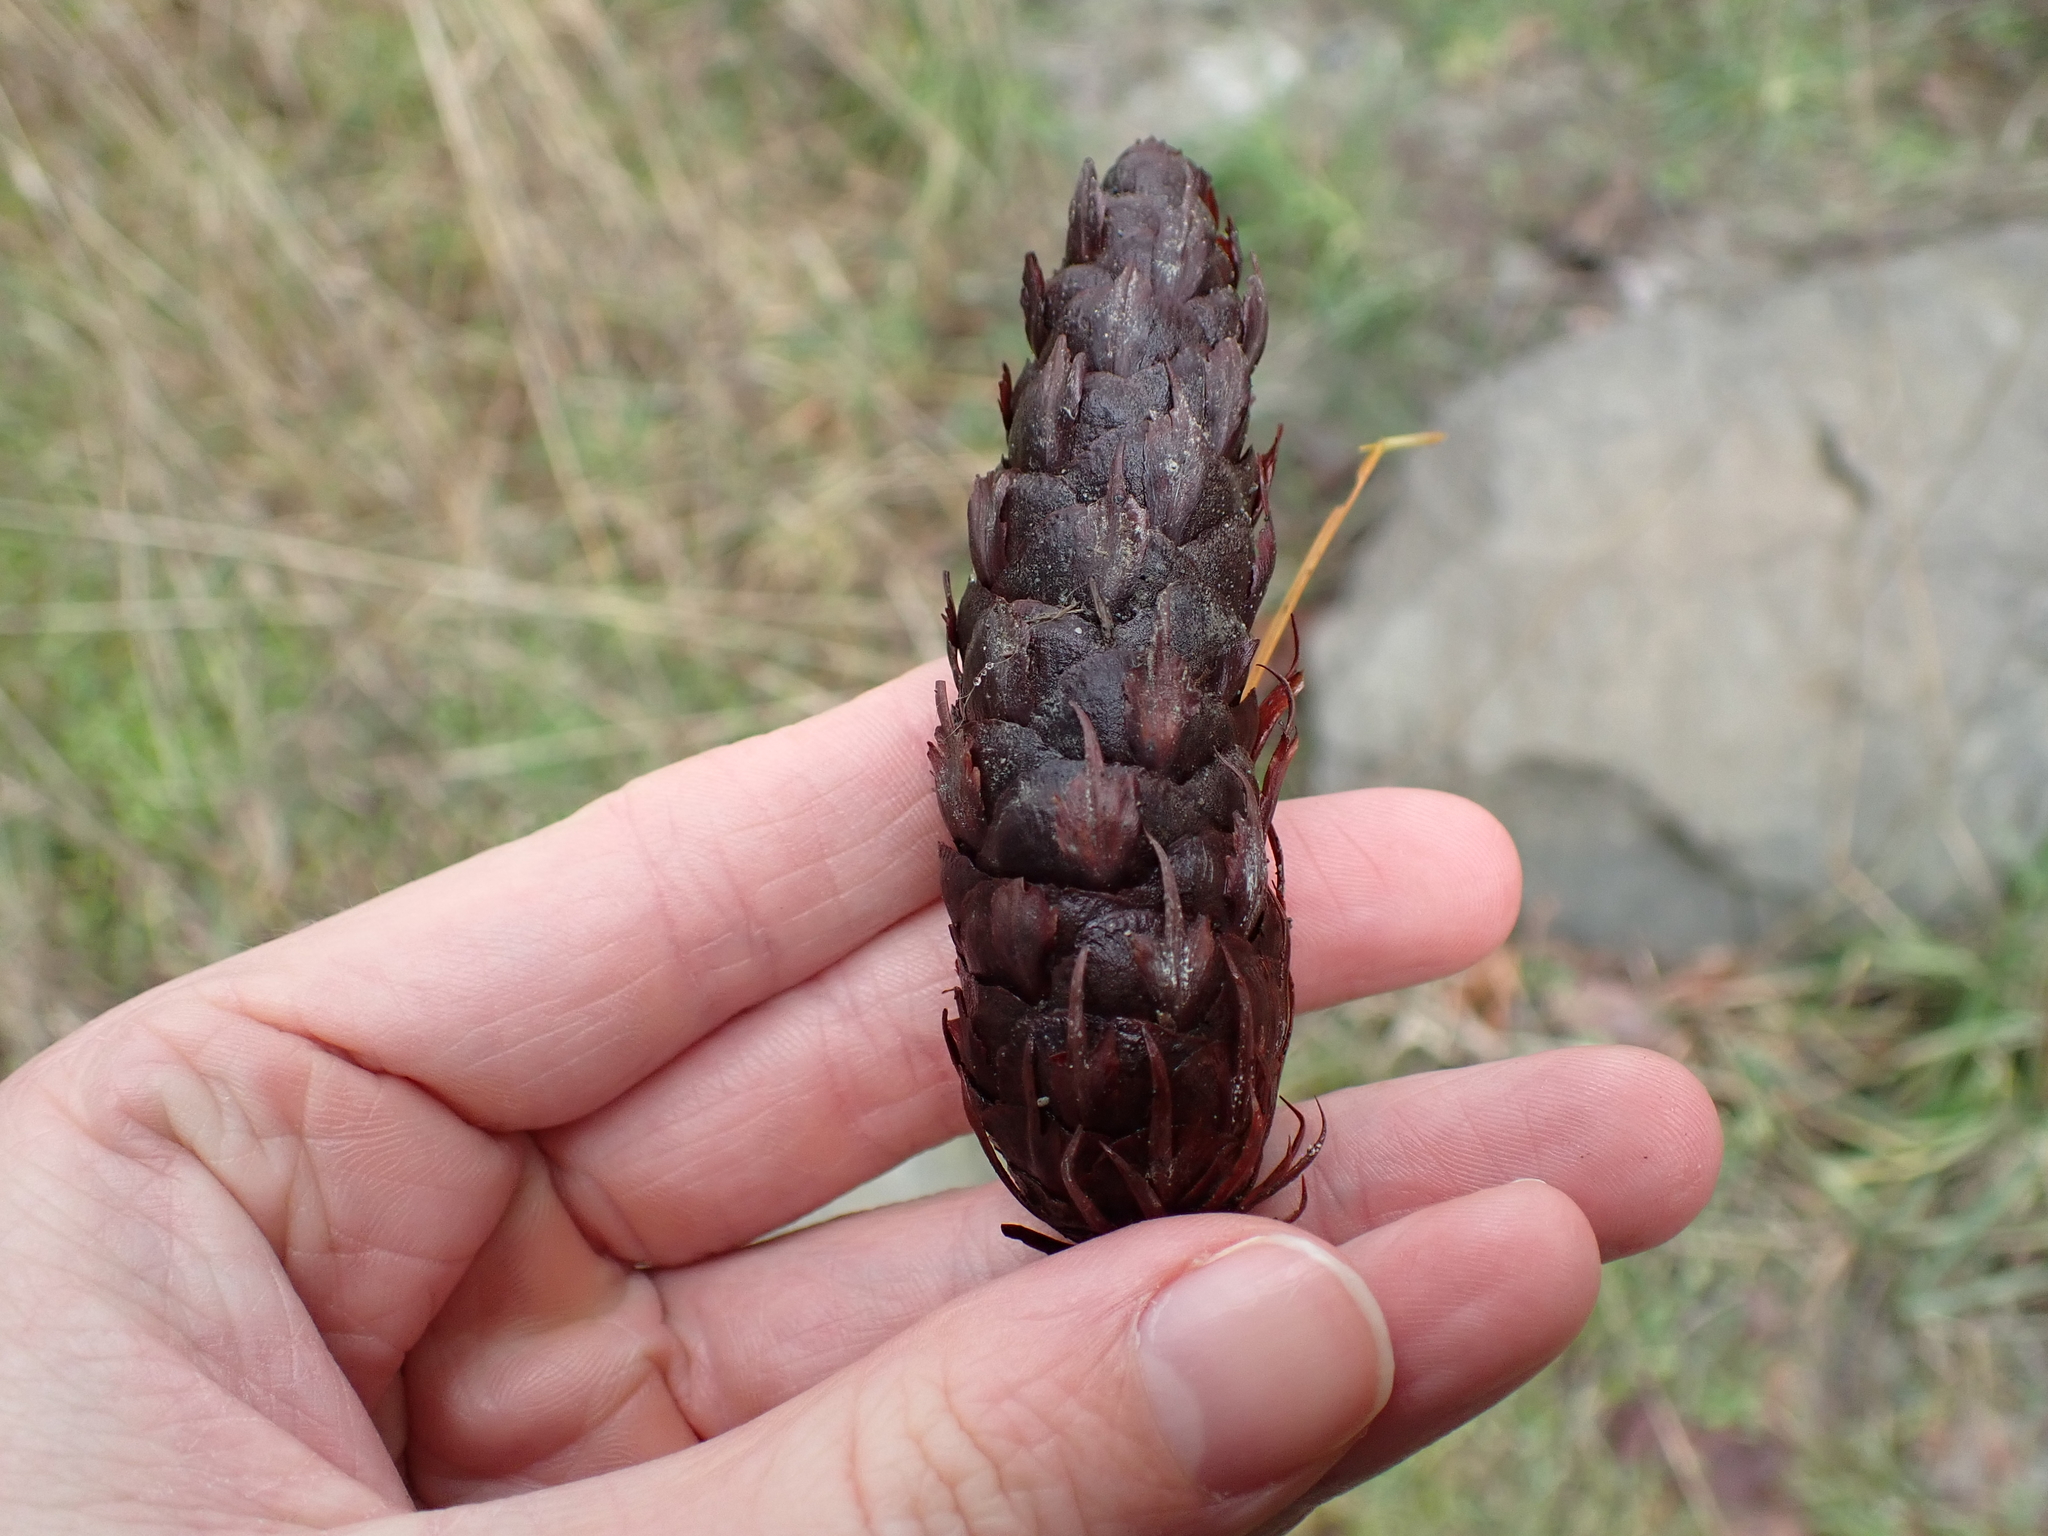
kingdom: Plantae
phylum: Tracheophyta
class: Pinopsida
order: Pinales
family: Pinaceae
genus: Pseudotsuga
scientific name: Pseudotsuga menziesii
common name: Douglas fir
